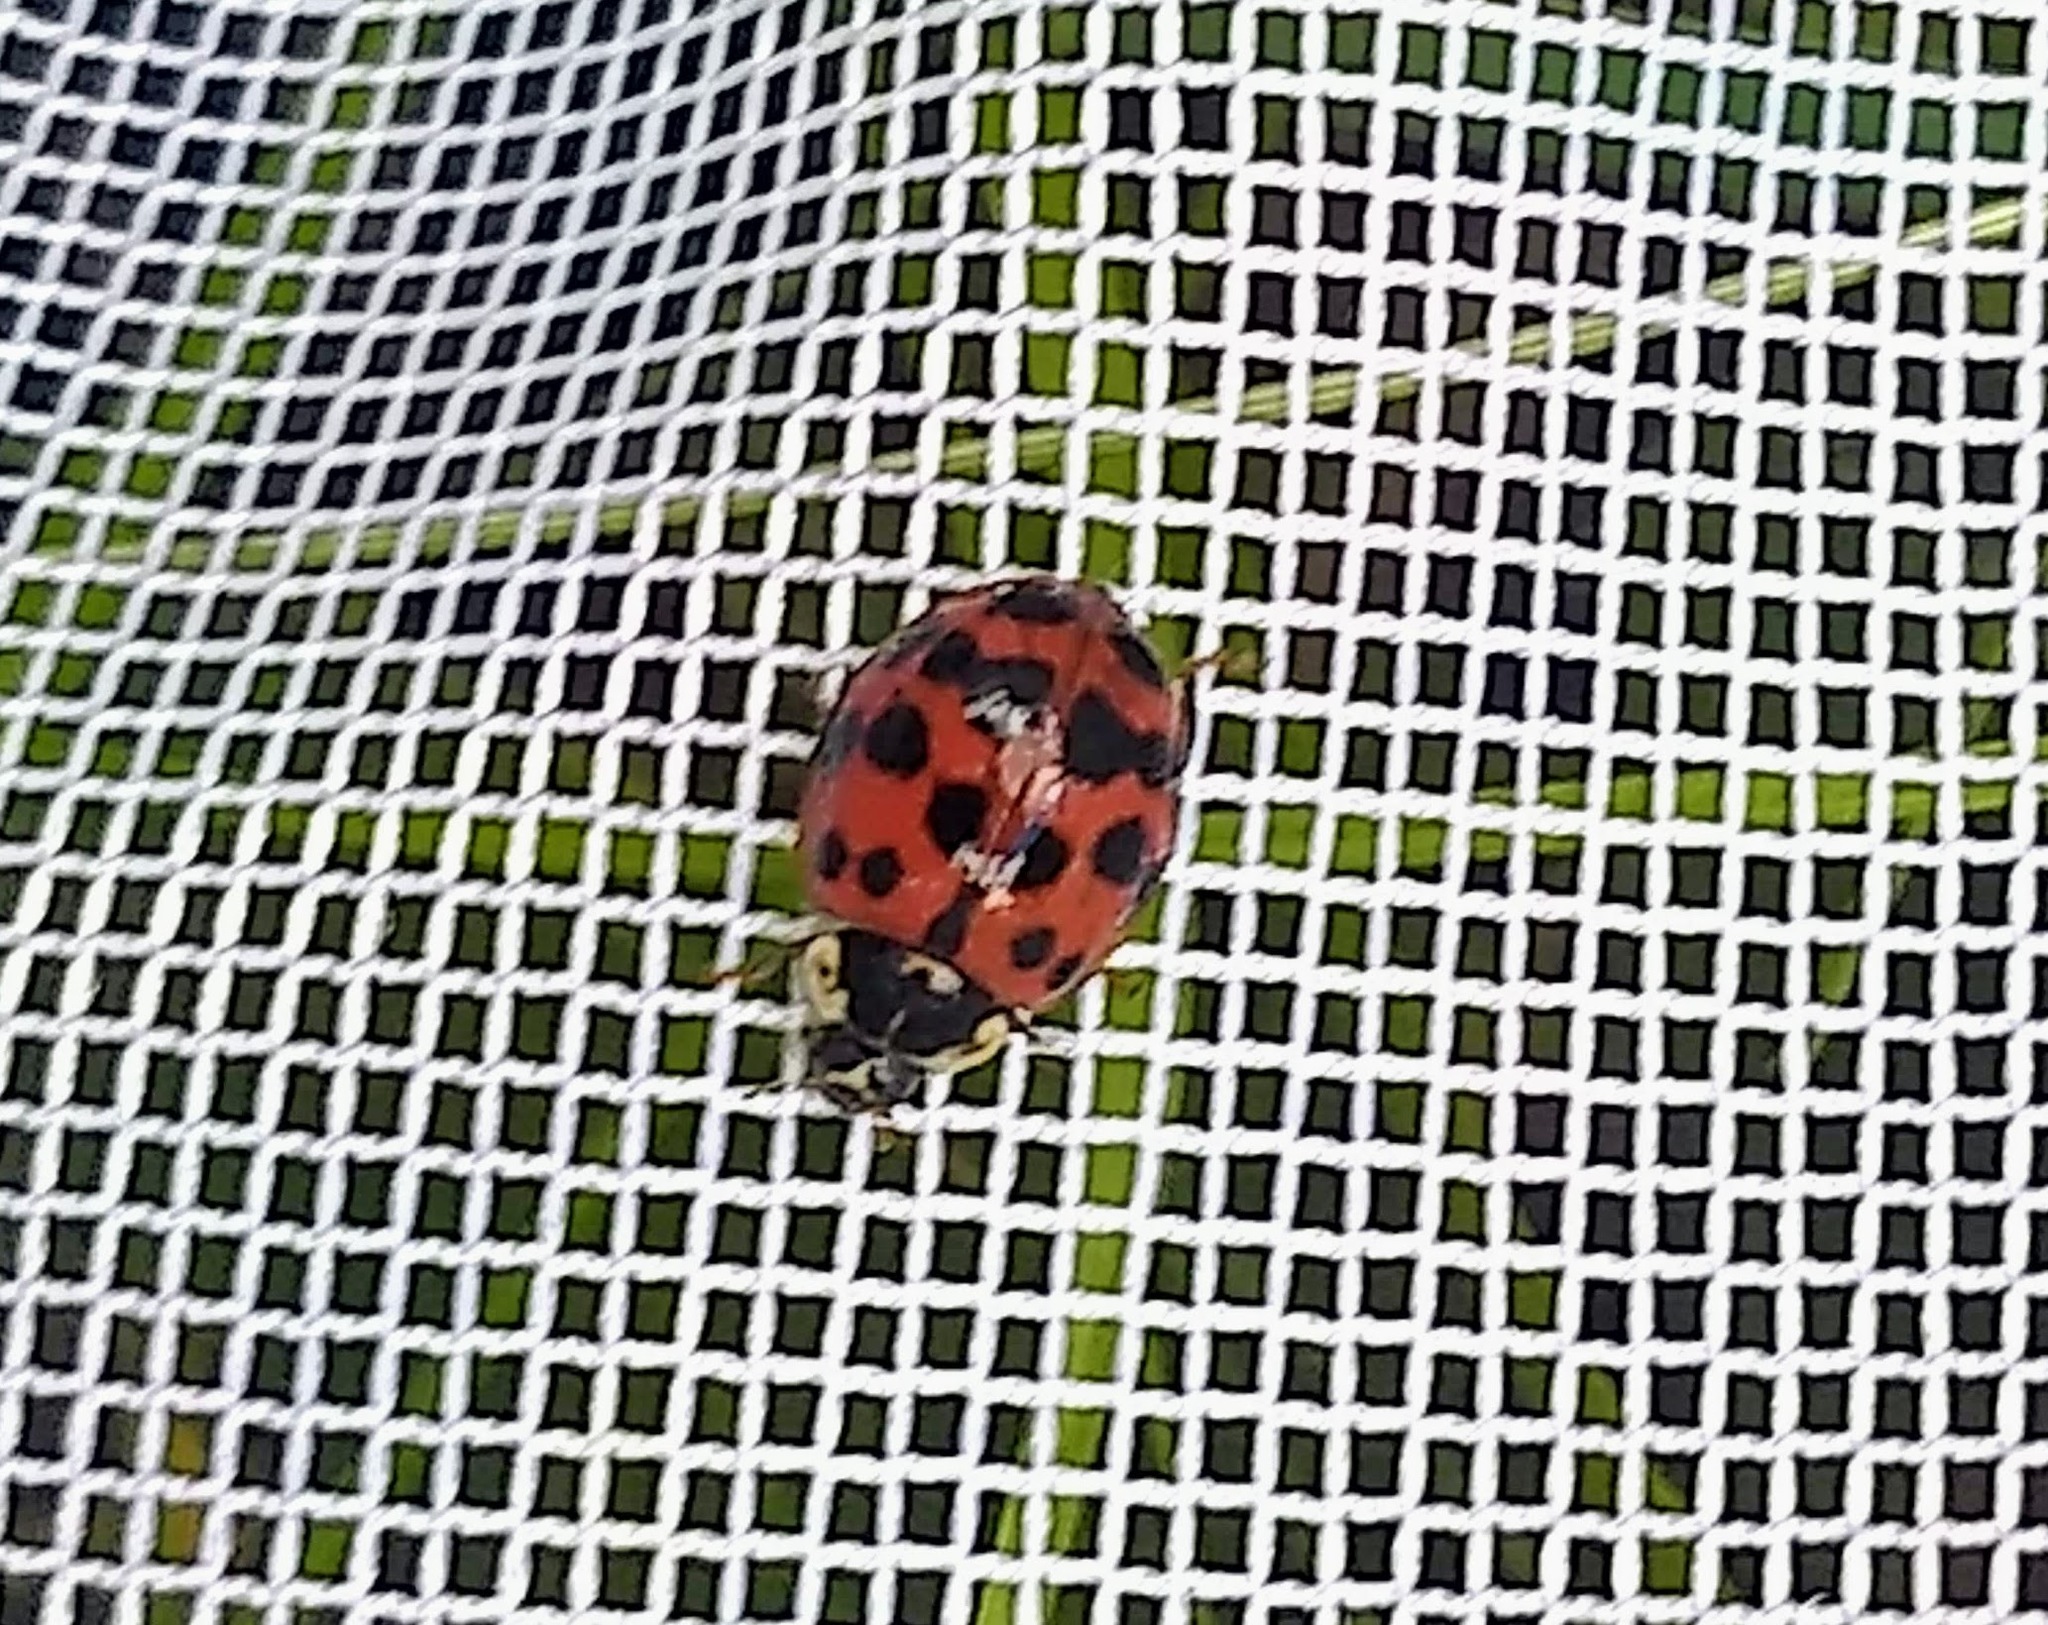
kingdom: Animalia
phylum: Arthropoda
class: Insecta
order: Coleoptera
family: Coccinellidae
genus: Harmonia
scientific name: Harmonia axyridis
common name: Harlequin ladybird
